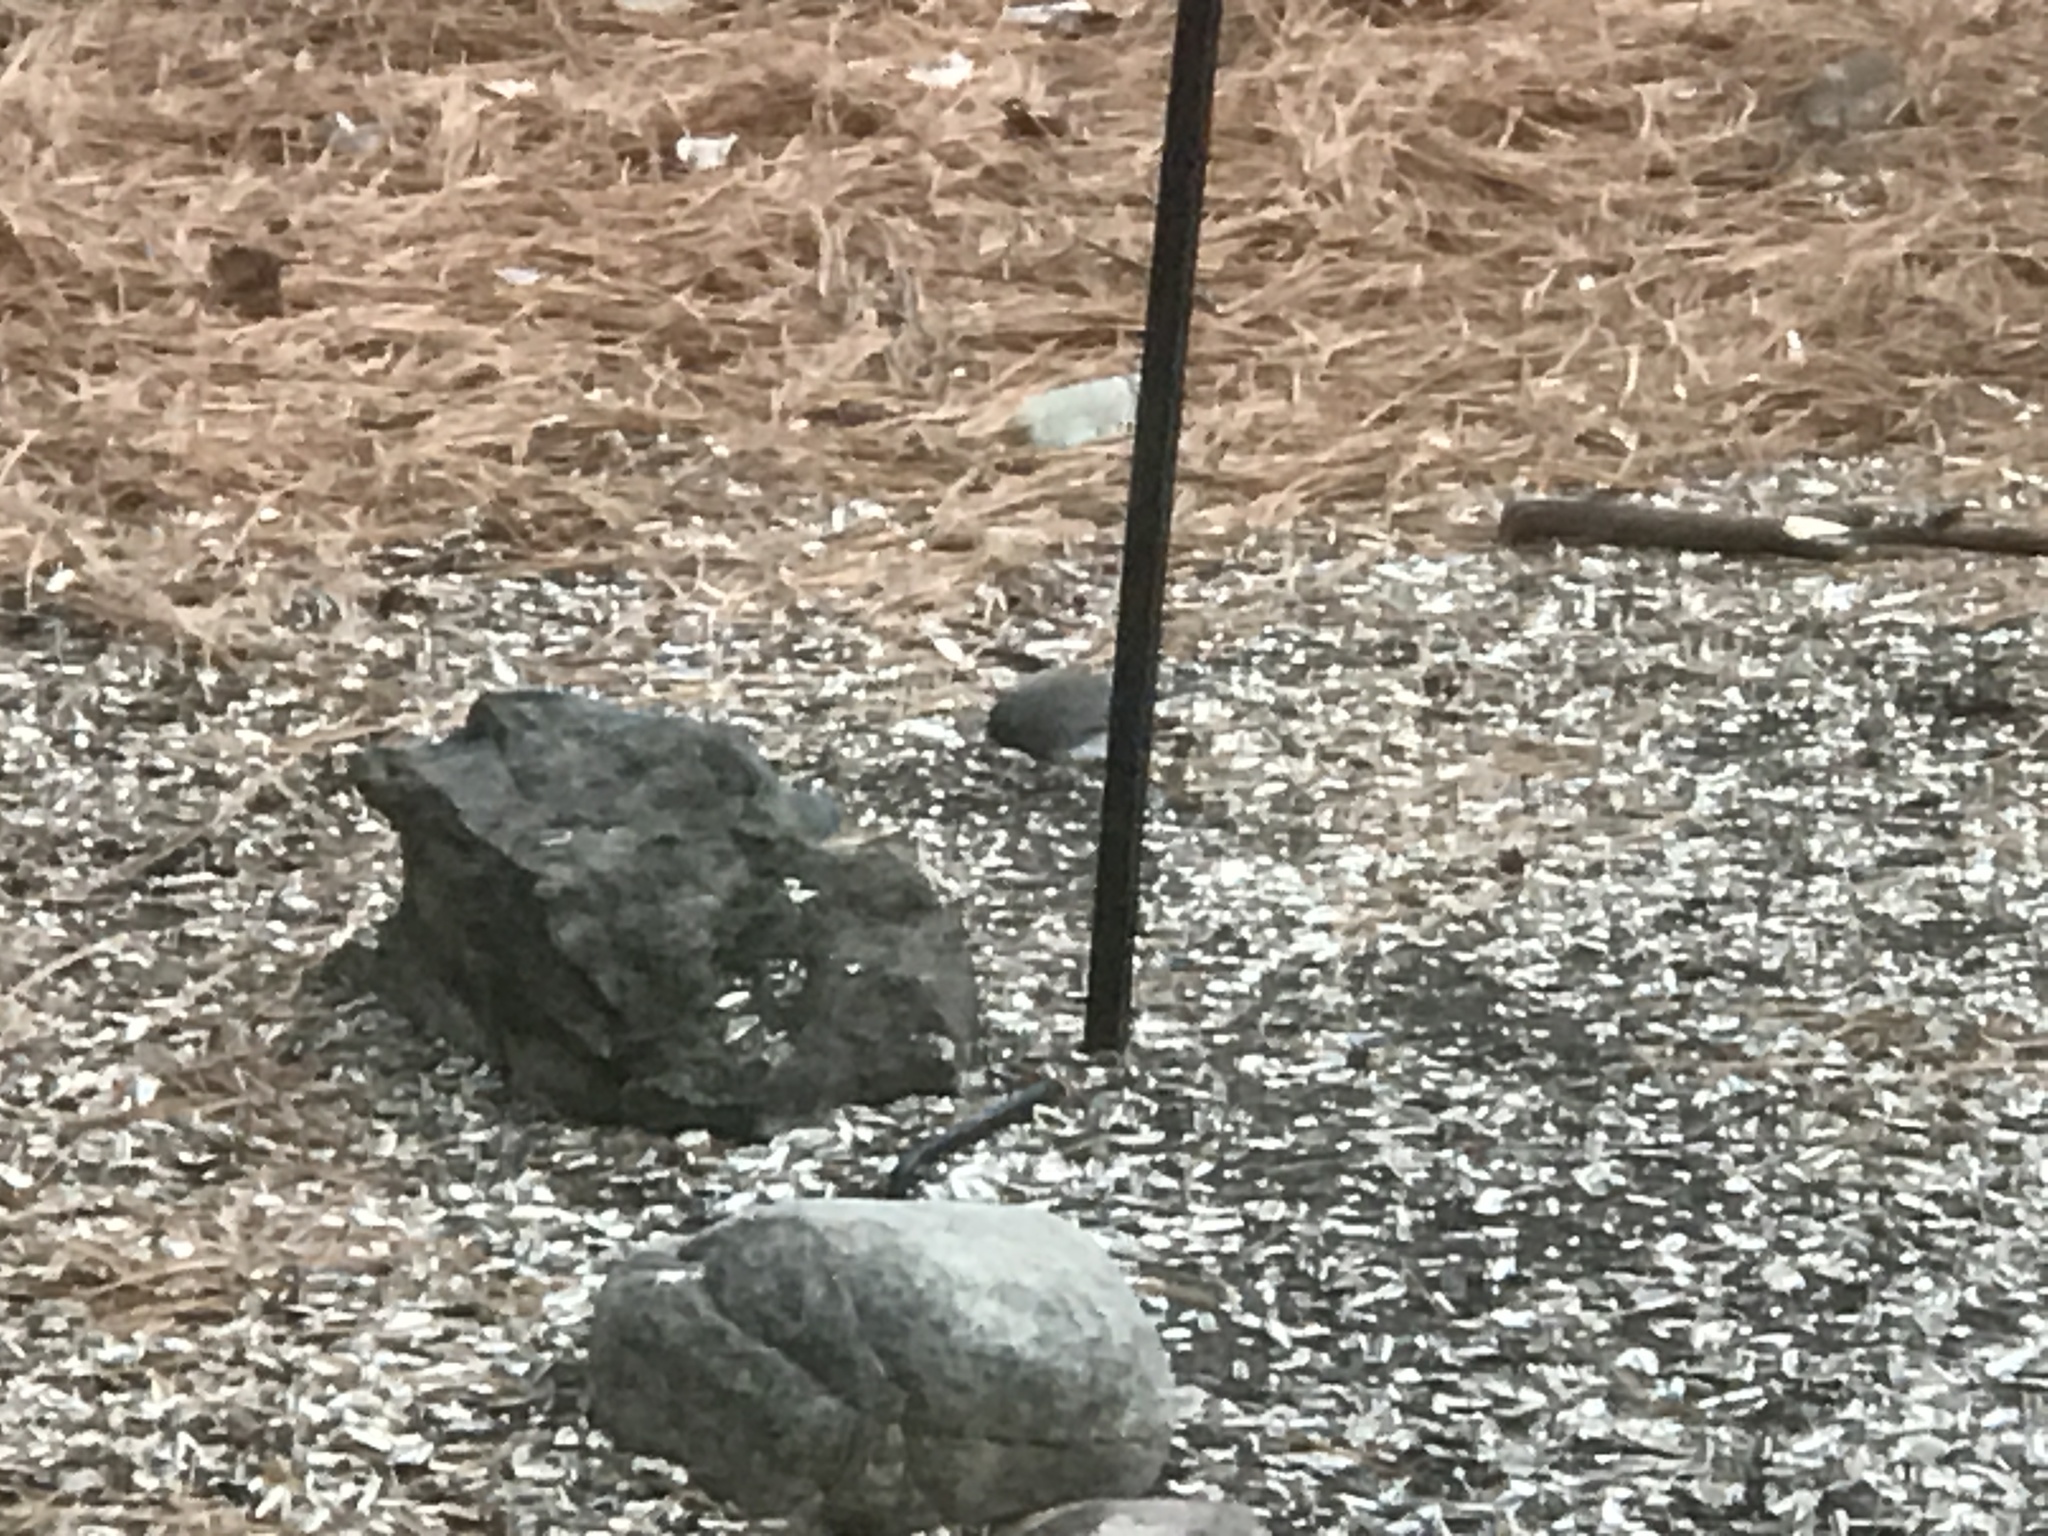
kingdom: Animalia
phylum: Chordata
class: Aves
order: Passeriformes
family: Passerellidae
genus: Junco
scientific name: Junco hyemalis
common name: Dark-eyed junco
